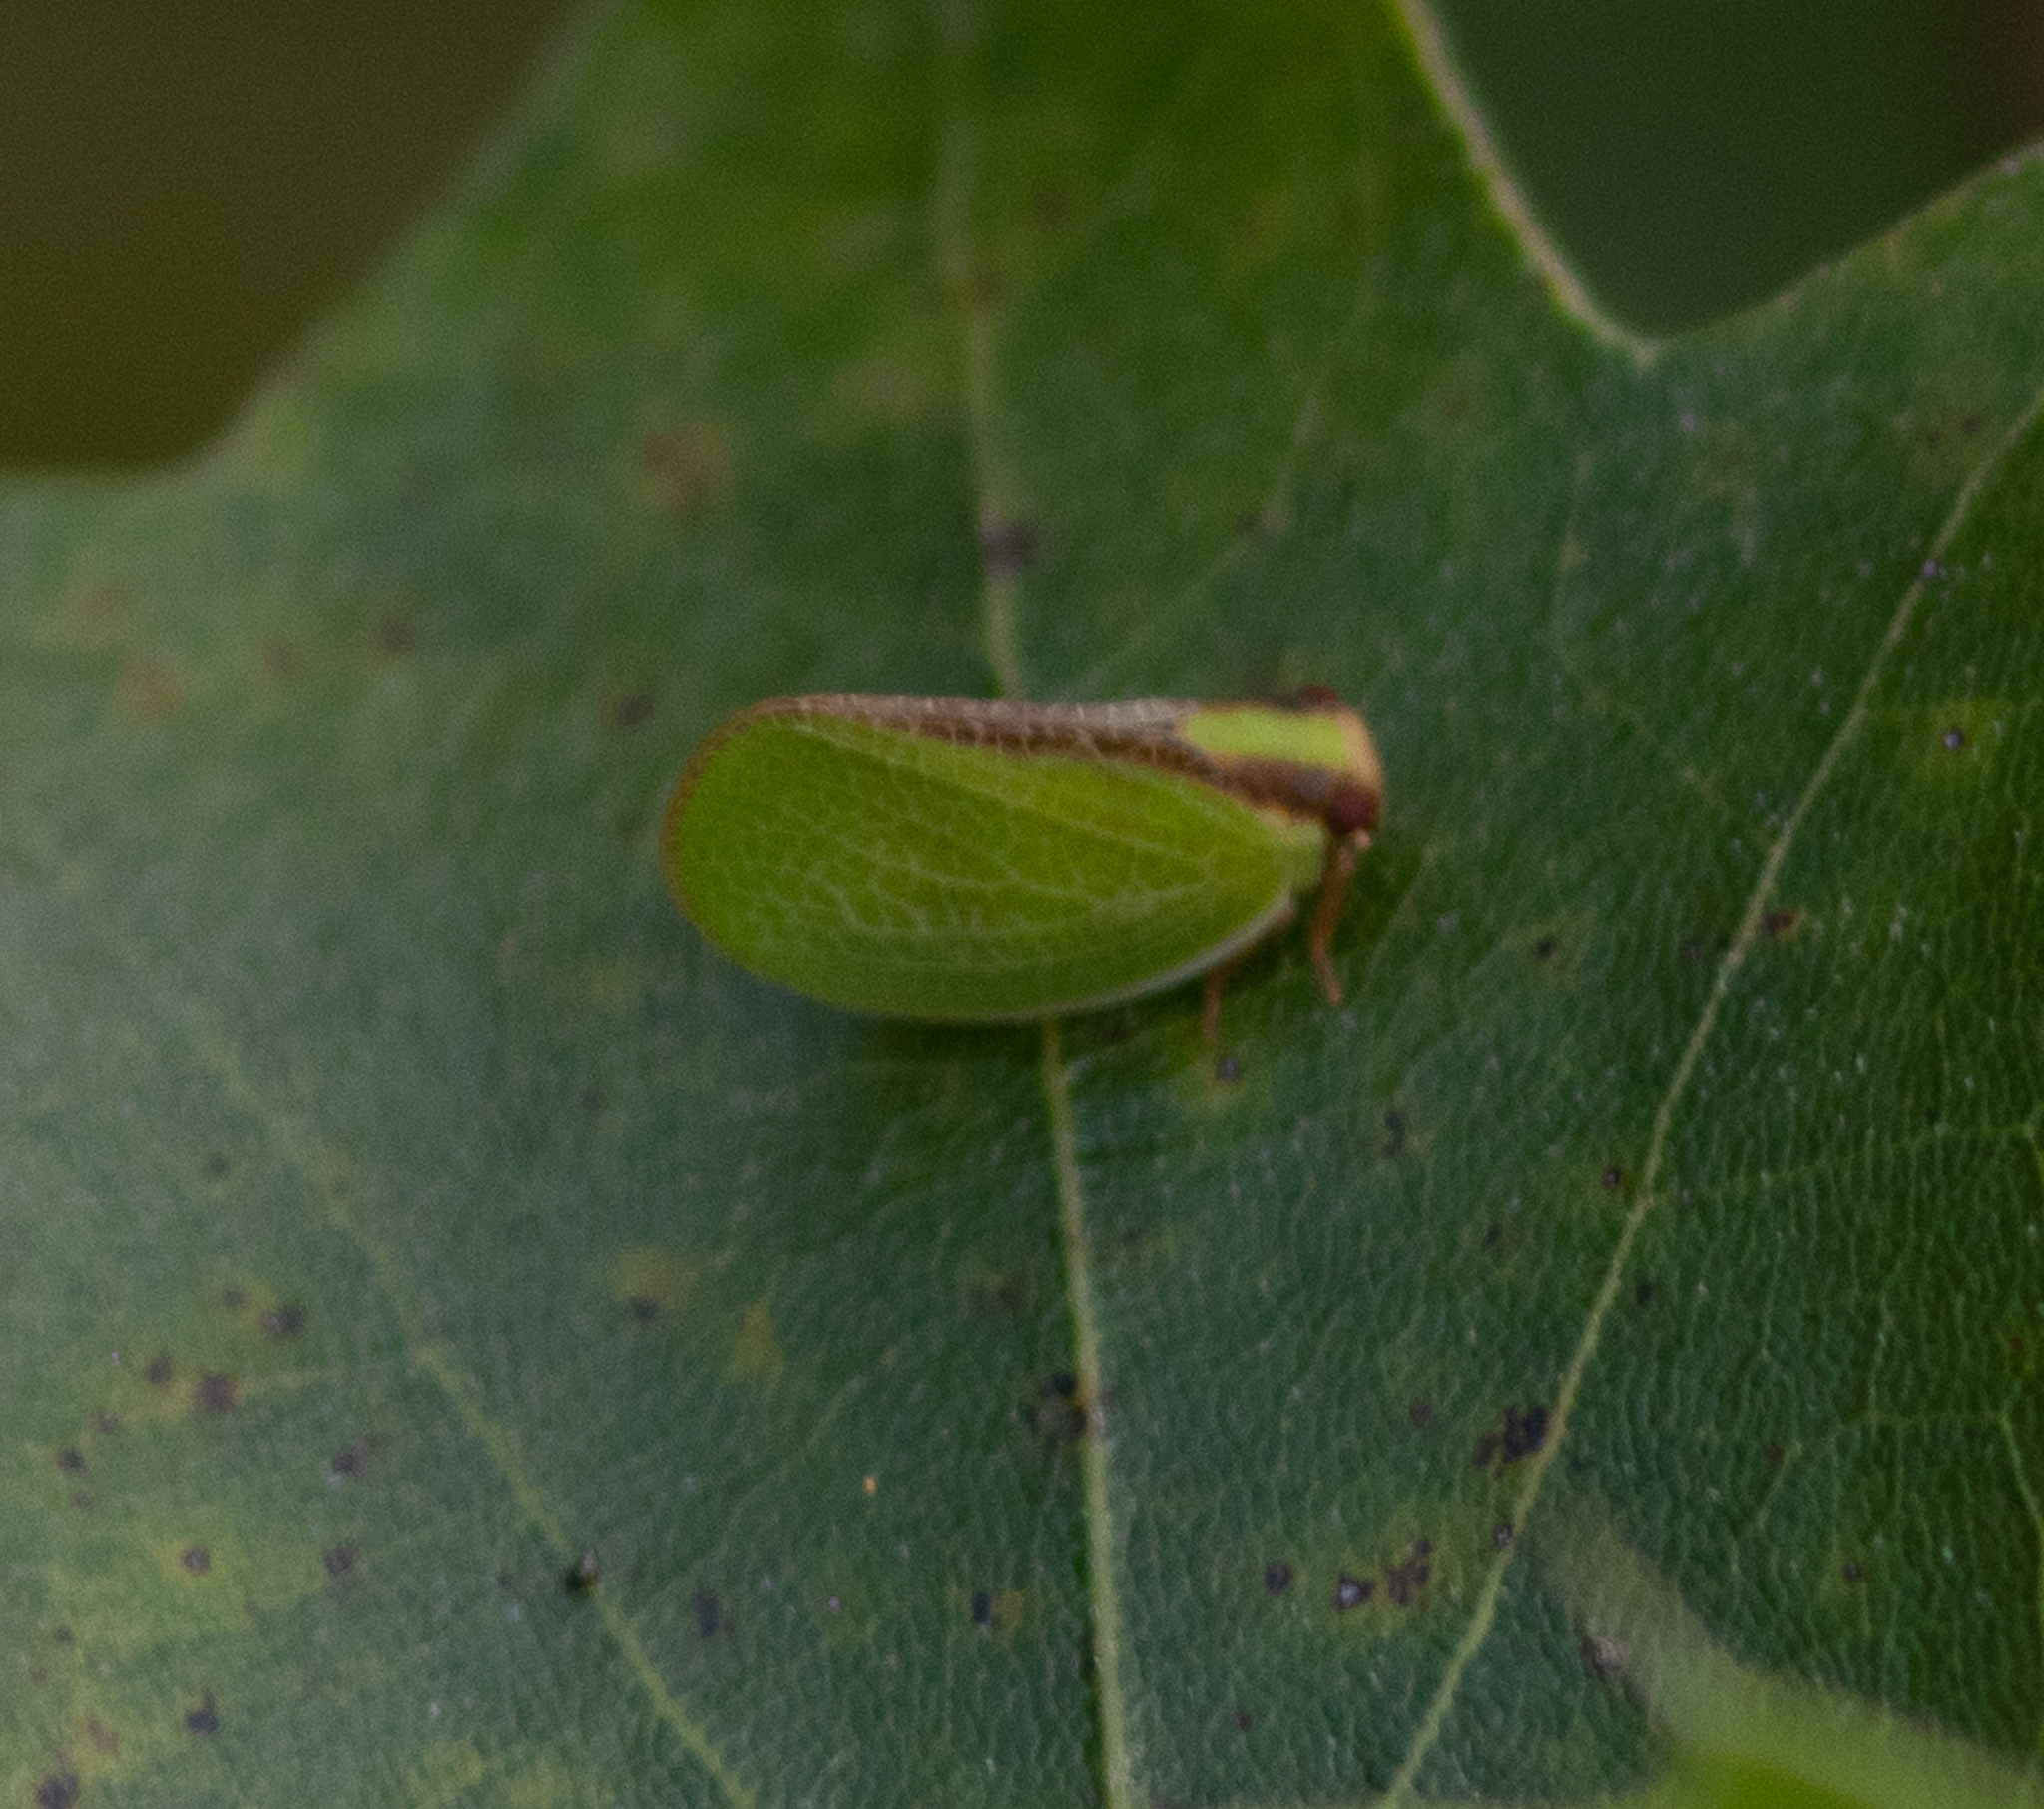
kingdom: Animalia
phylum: Arthropoda
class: Insecta
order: Hemiptera
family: Acanaloniidae
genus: Acanalonia
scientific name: Acanalonia bivittata
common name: Two-striped planthopper
